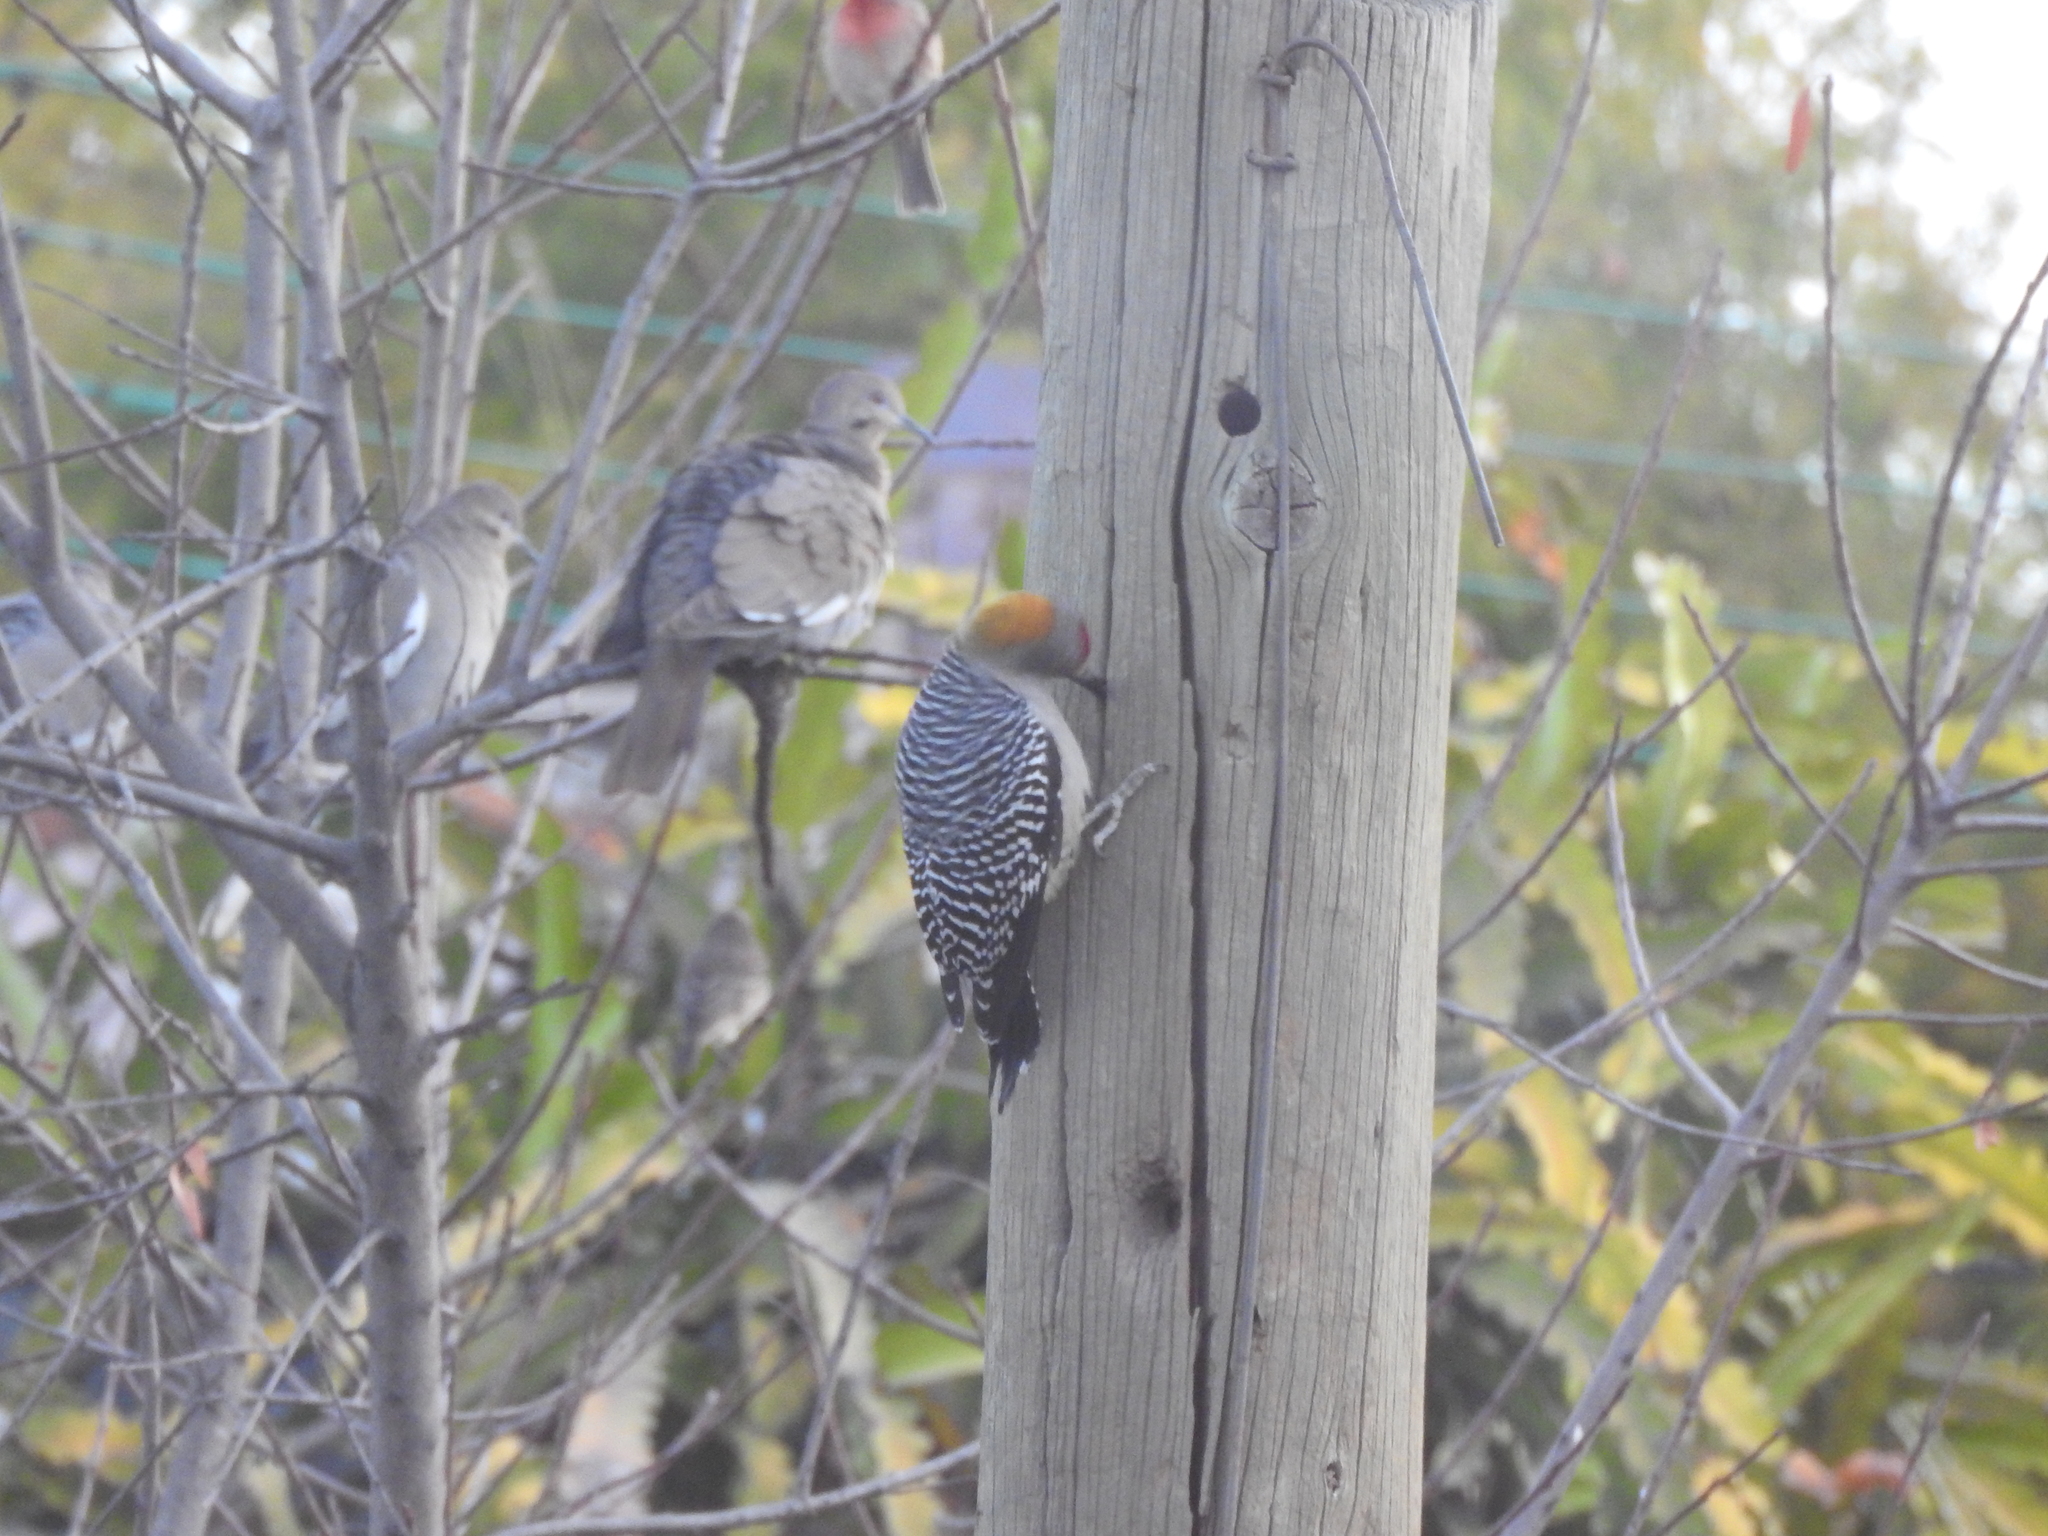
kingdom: Animalia
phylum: Chordata
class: Aves
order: Piciformes
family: Picidae
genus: Melanerpes
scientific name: Melanerpes aurifrons
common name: Golden-fronted woodpecker
